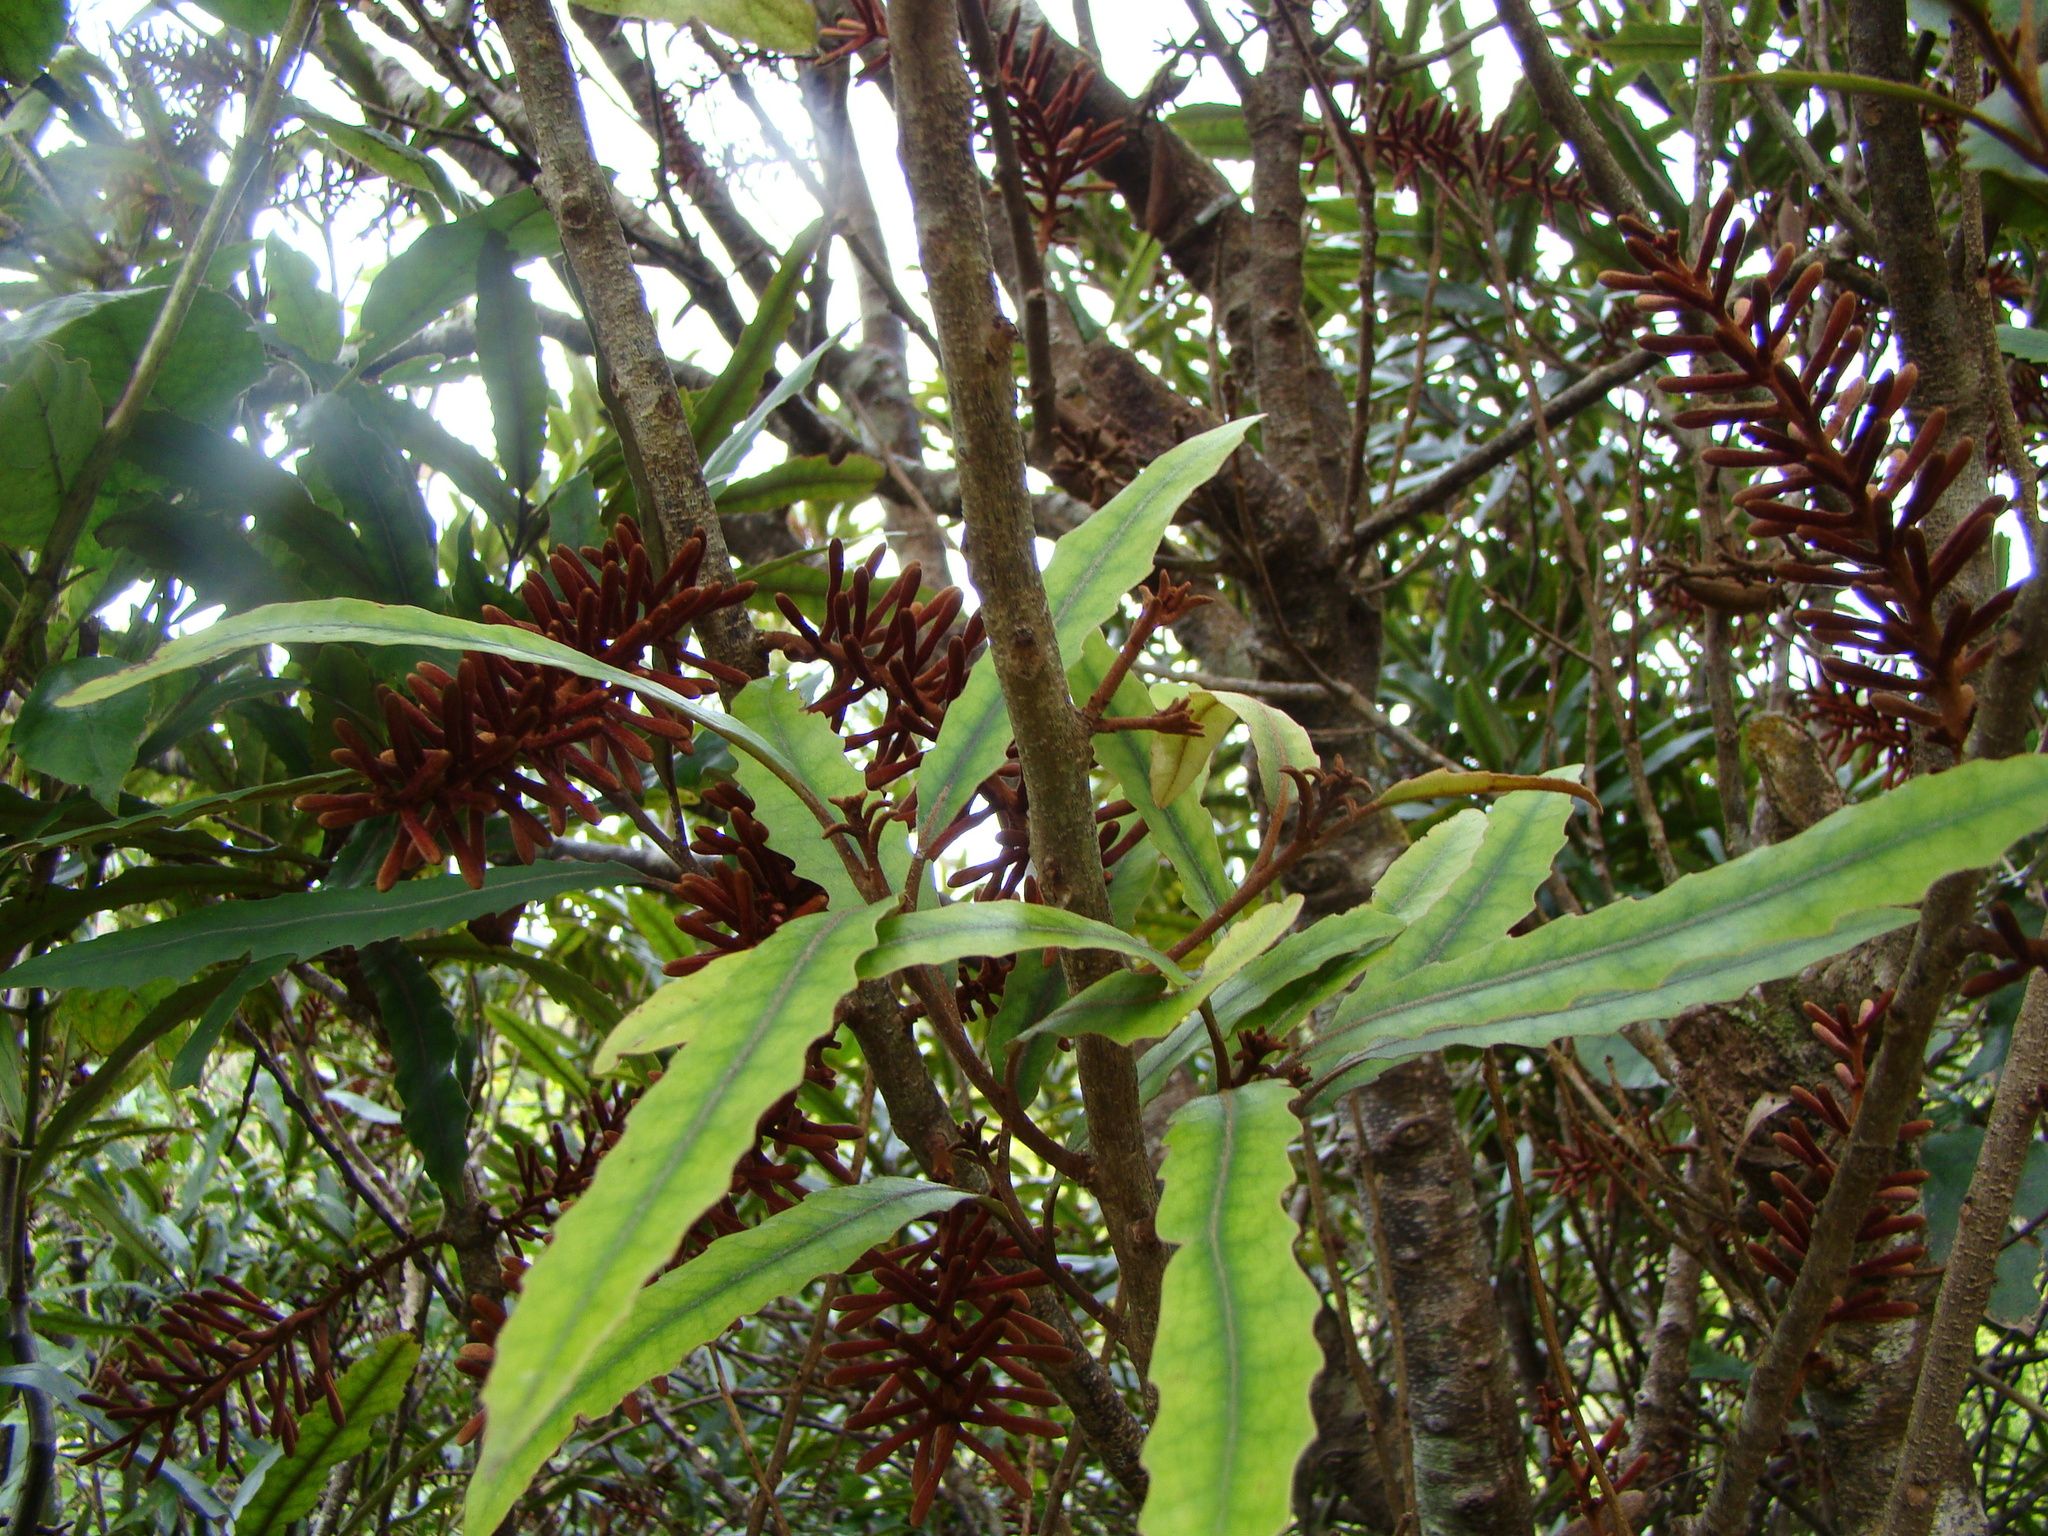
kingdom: Plantae
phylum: Tracheophyta
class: Magnoliopsida
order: Proteales
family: Proteaceae
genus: Knightia
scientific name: Knightia excelsa
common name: New zealand-honeysuckle
